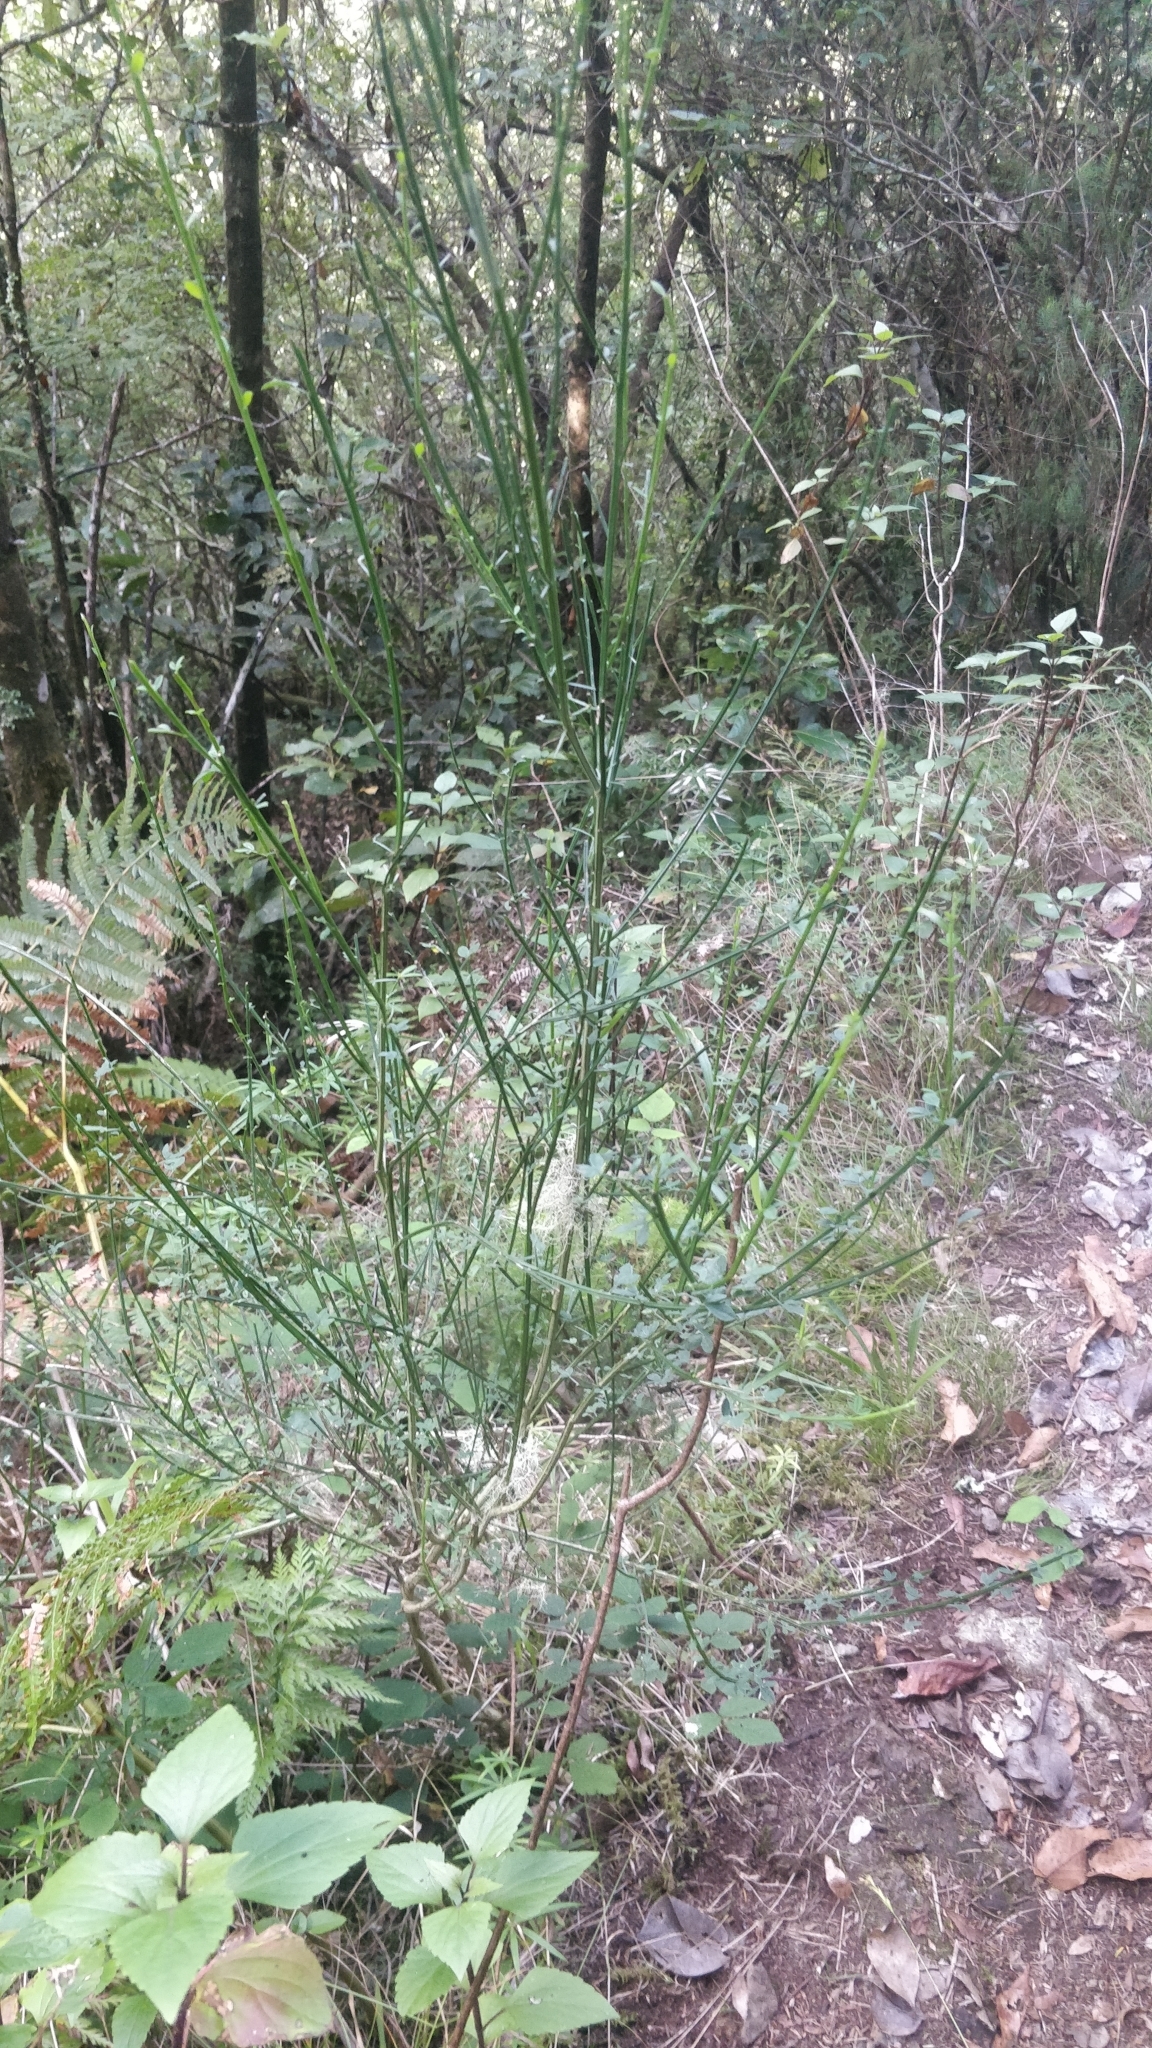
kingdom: Plantae
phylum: Tracheophyta
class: Magnoliopsida
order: Fabales
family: Fabaceae
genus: Cytisus
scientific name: Cytisus scoparius
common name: Scotch broom
